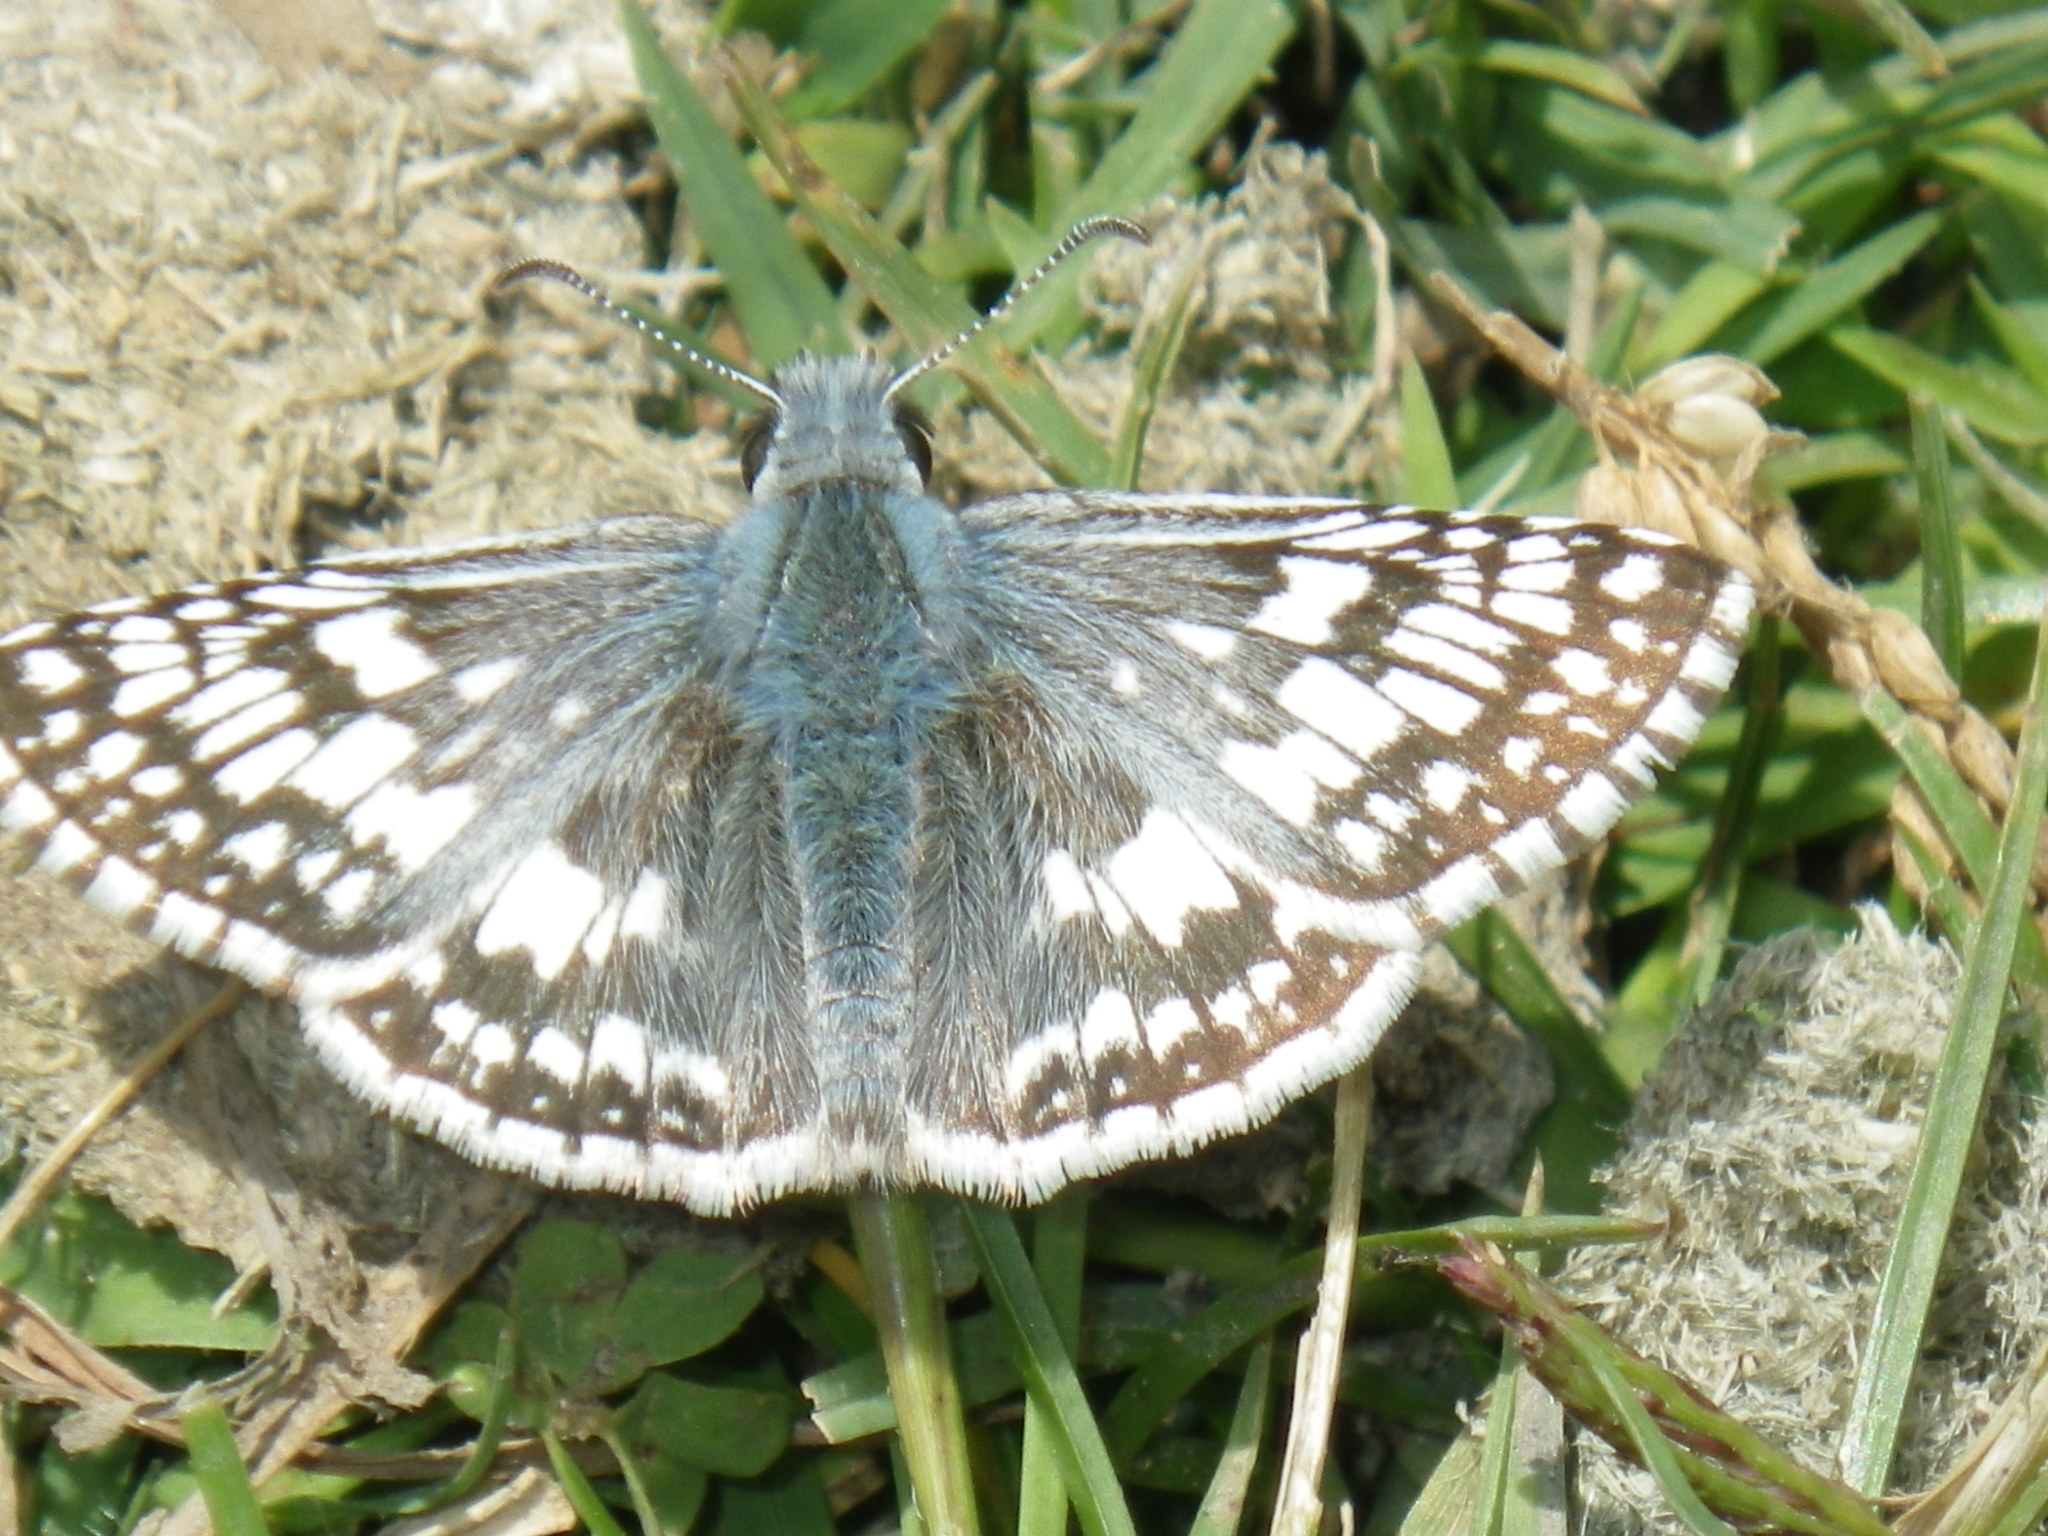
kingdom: Animalia
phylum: Arthropoda
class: Insecta
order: Lepidoptera
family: Hesperiidae
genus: Burnsius
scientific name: Burnsius communis
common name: Common checkered-skipper
